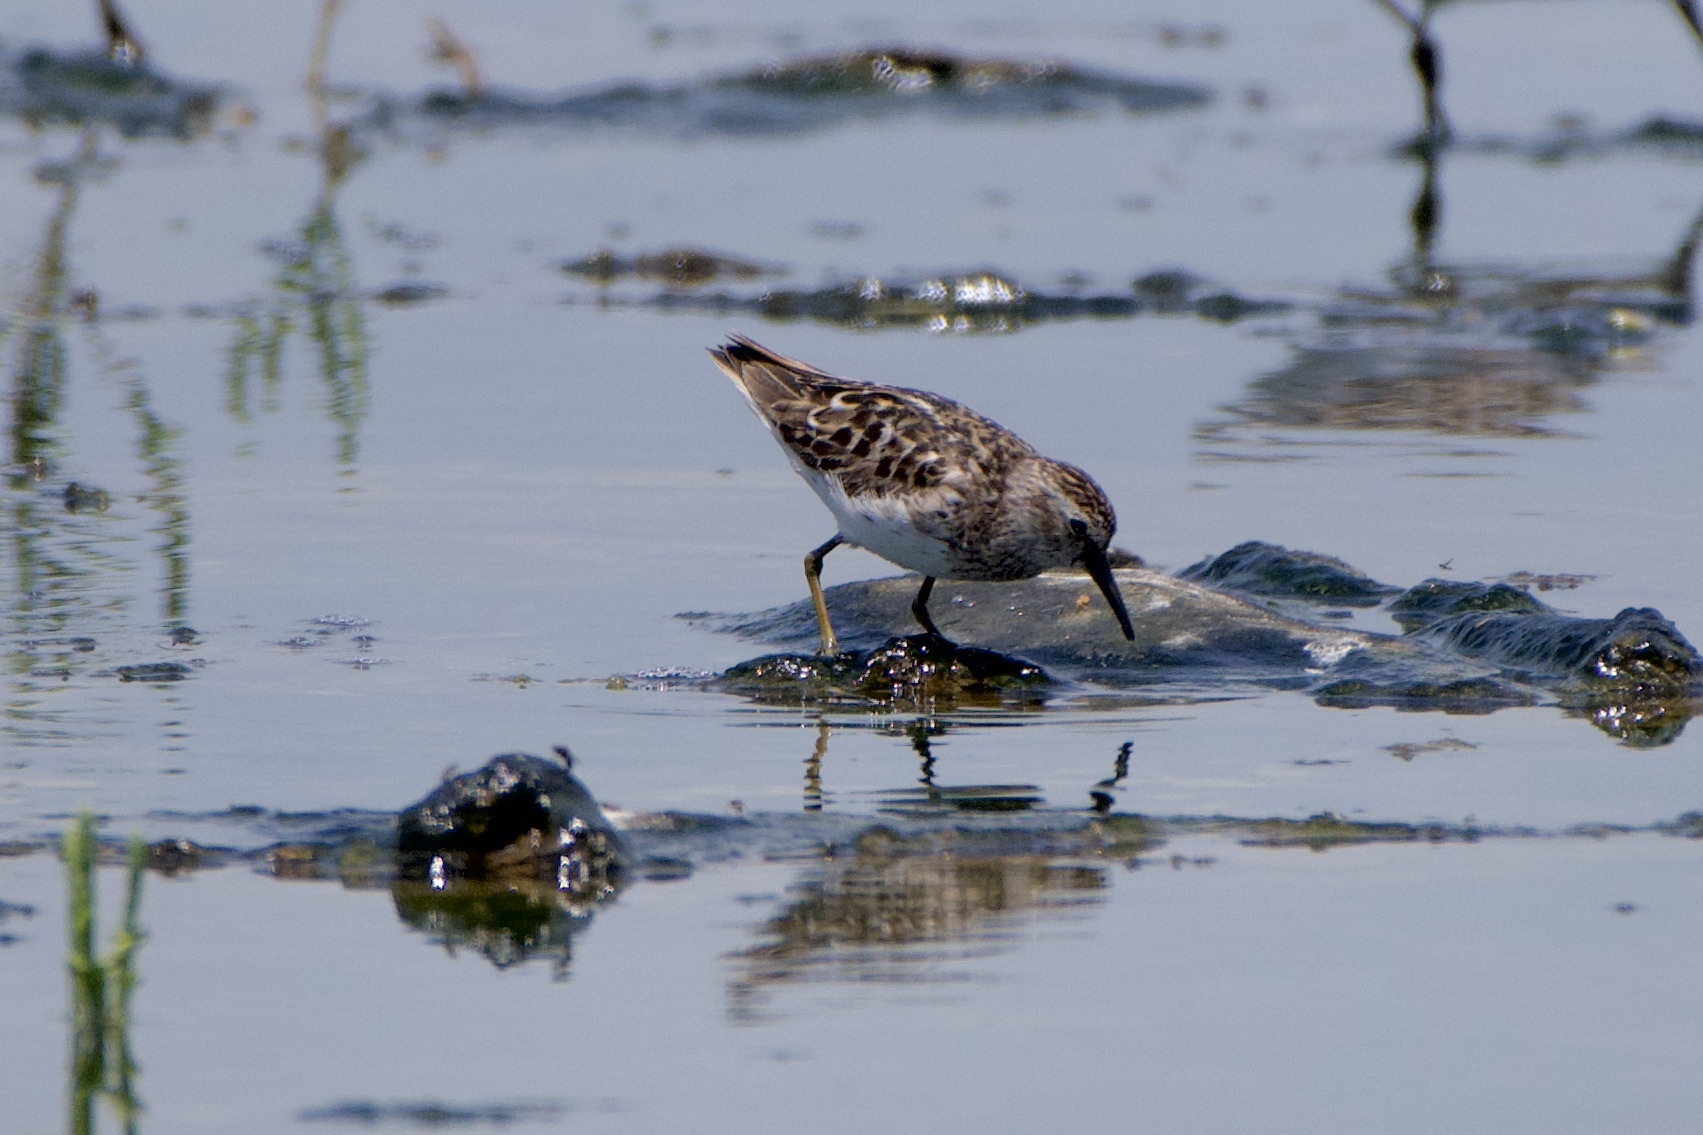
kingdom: Animalia
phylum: Chordata
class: Aves
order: Charadriiformes
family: Scolopacidae
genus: Calidris
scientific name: Calidris minutilla
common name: Least sandpiper
